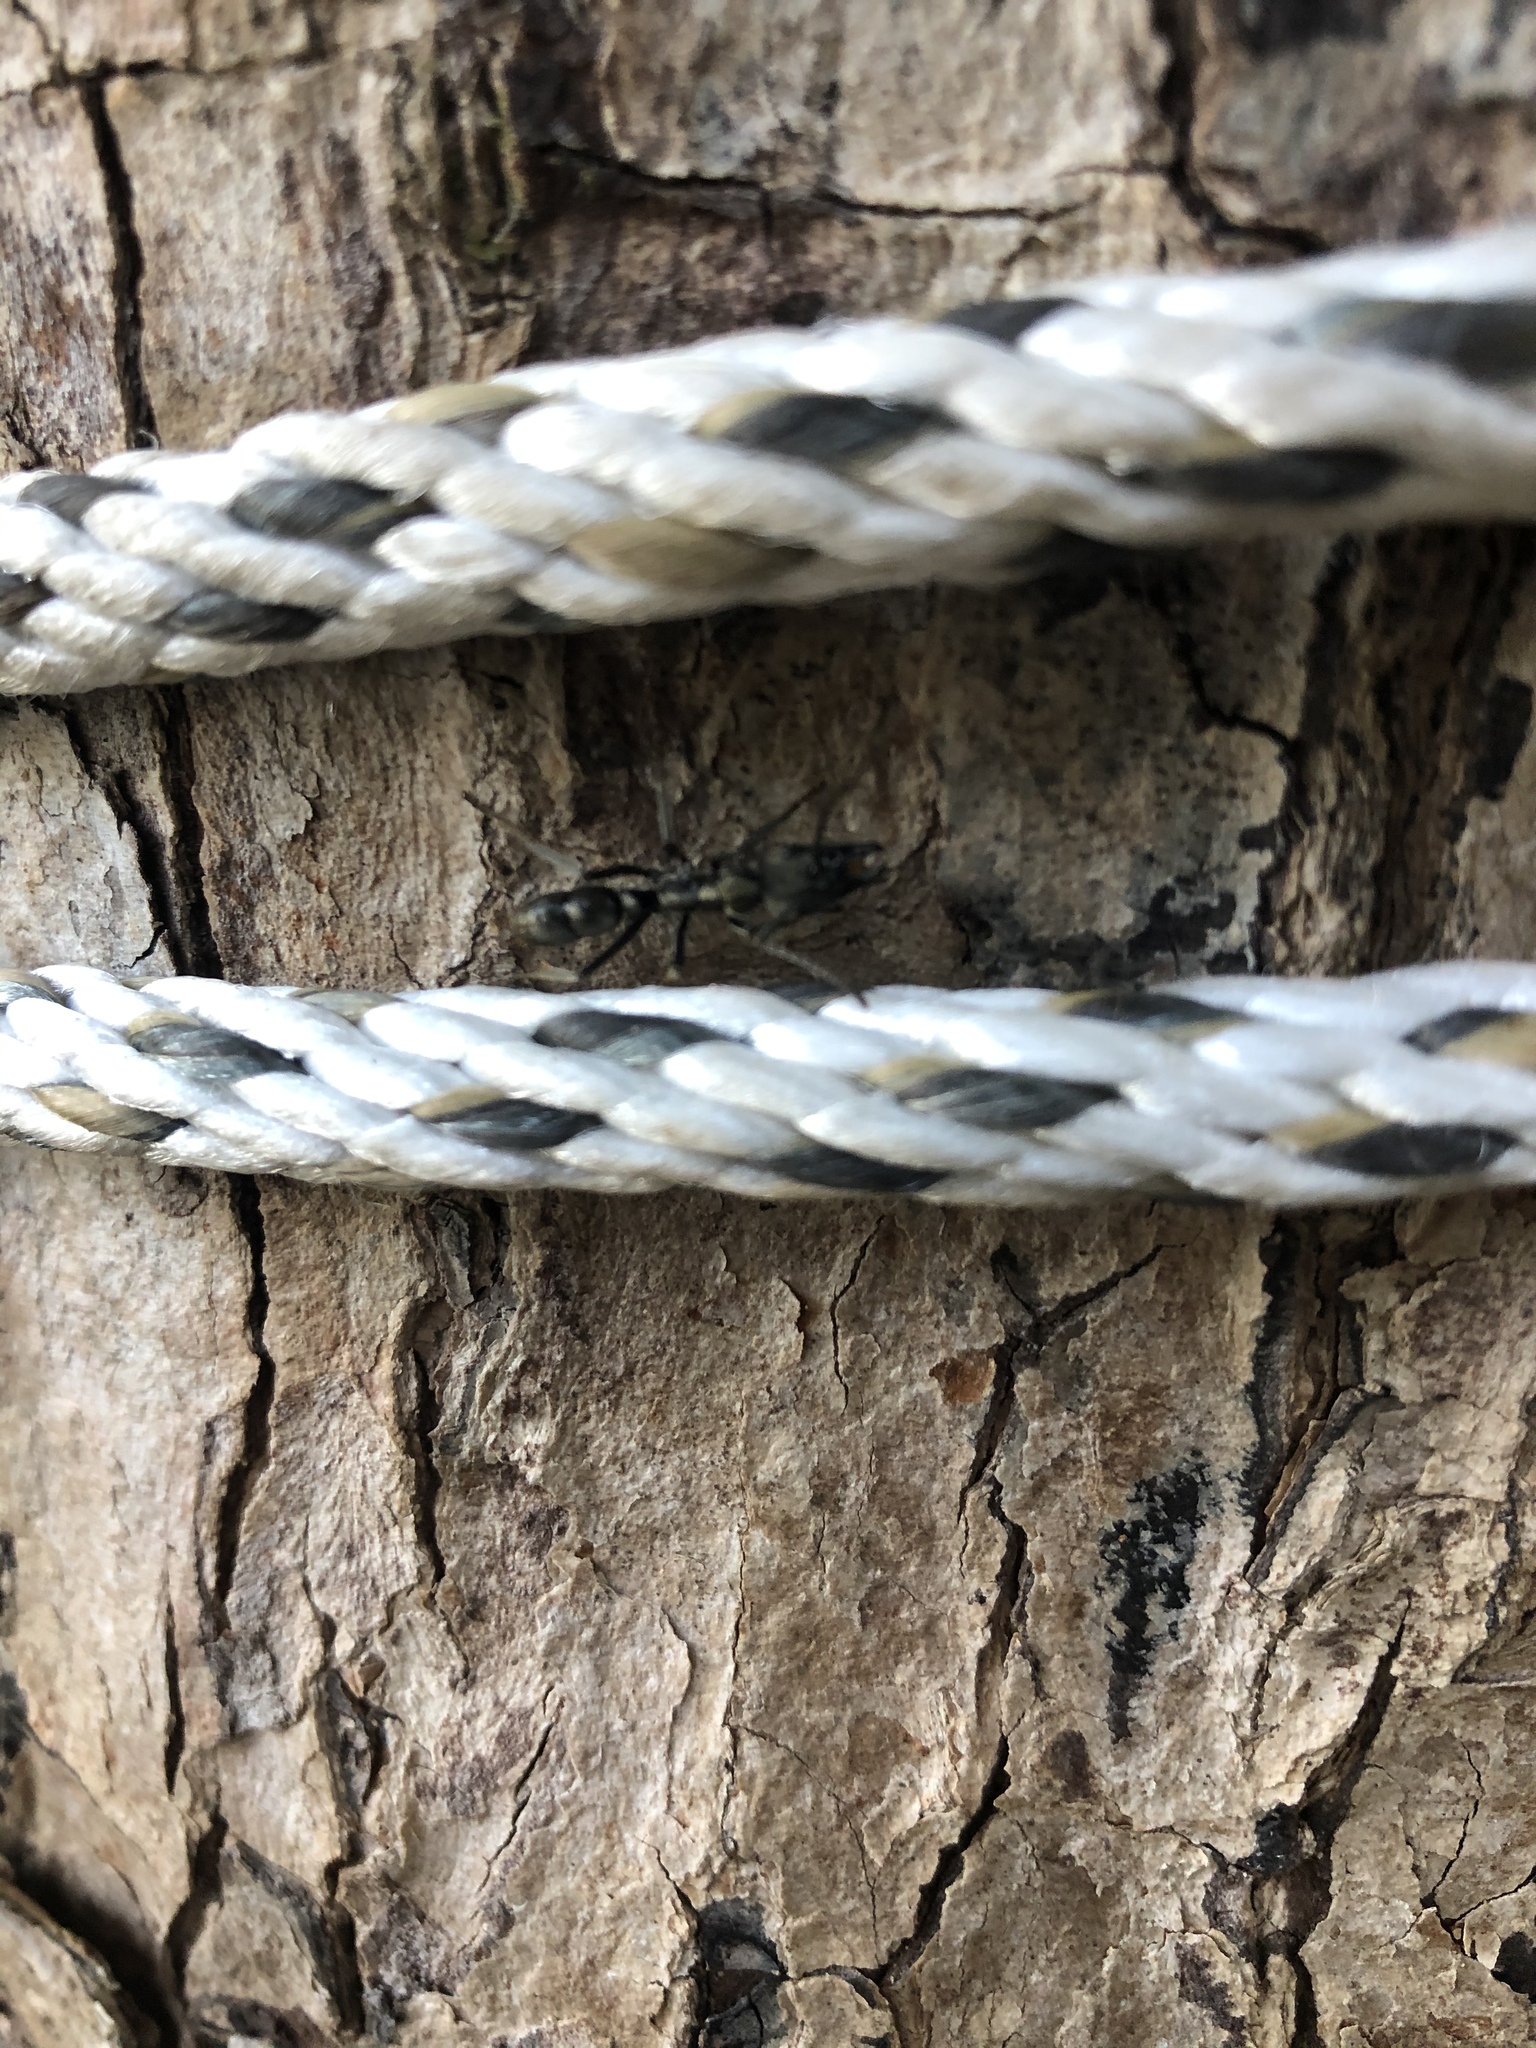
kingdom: Animalia
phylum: Arthropoda
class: Insecta
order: Hymenoptera
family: Formicidae
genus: Pachycondyla
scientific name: Pachycondyla villosa
